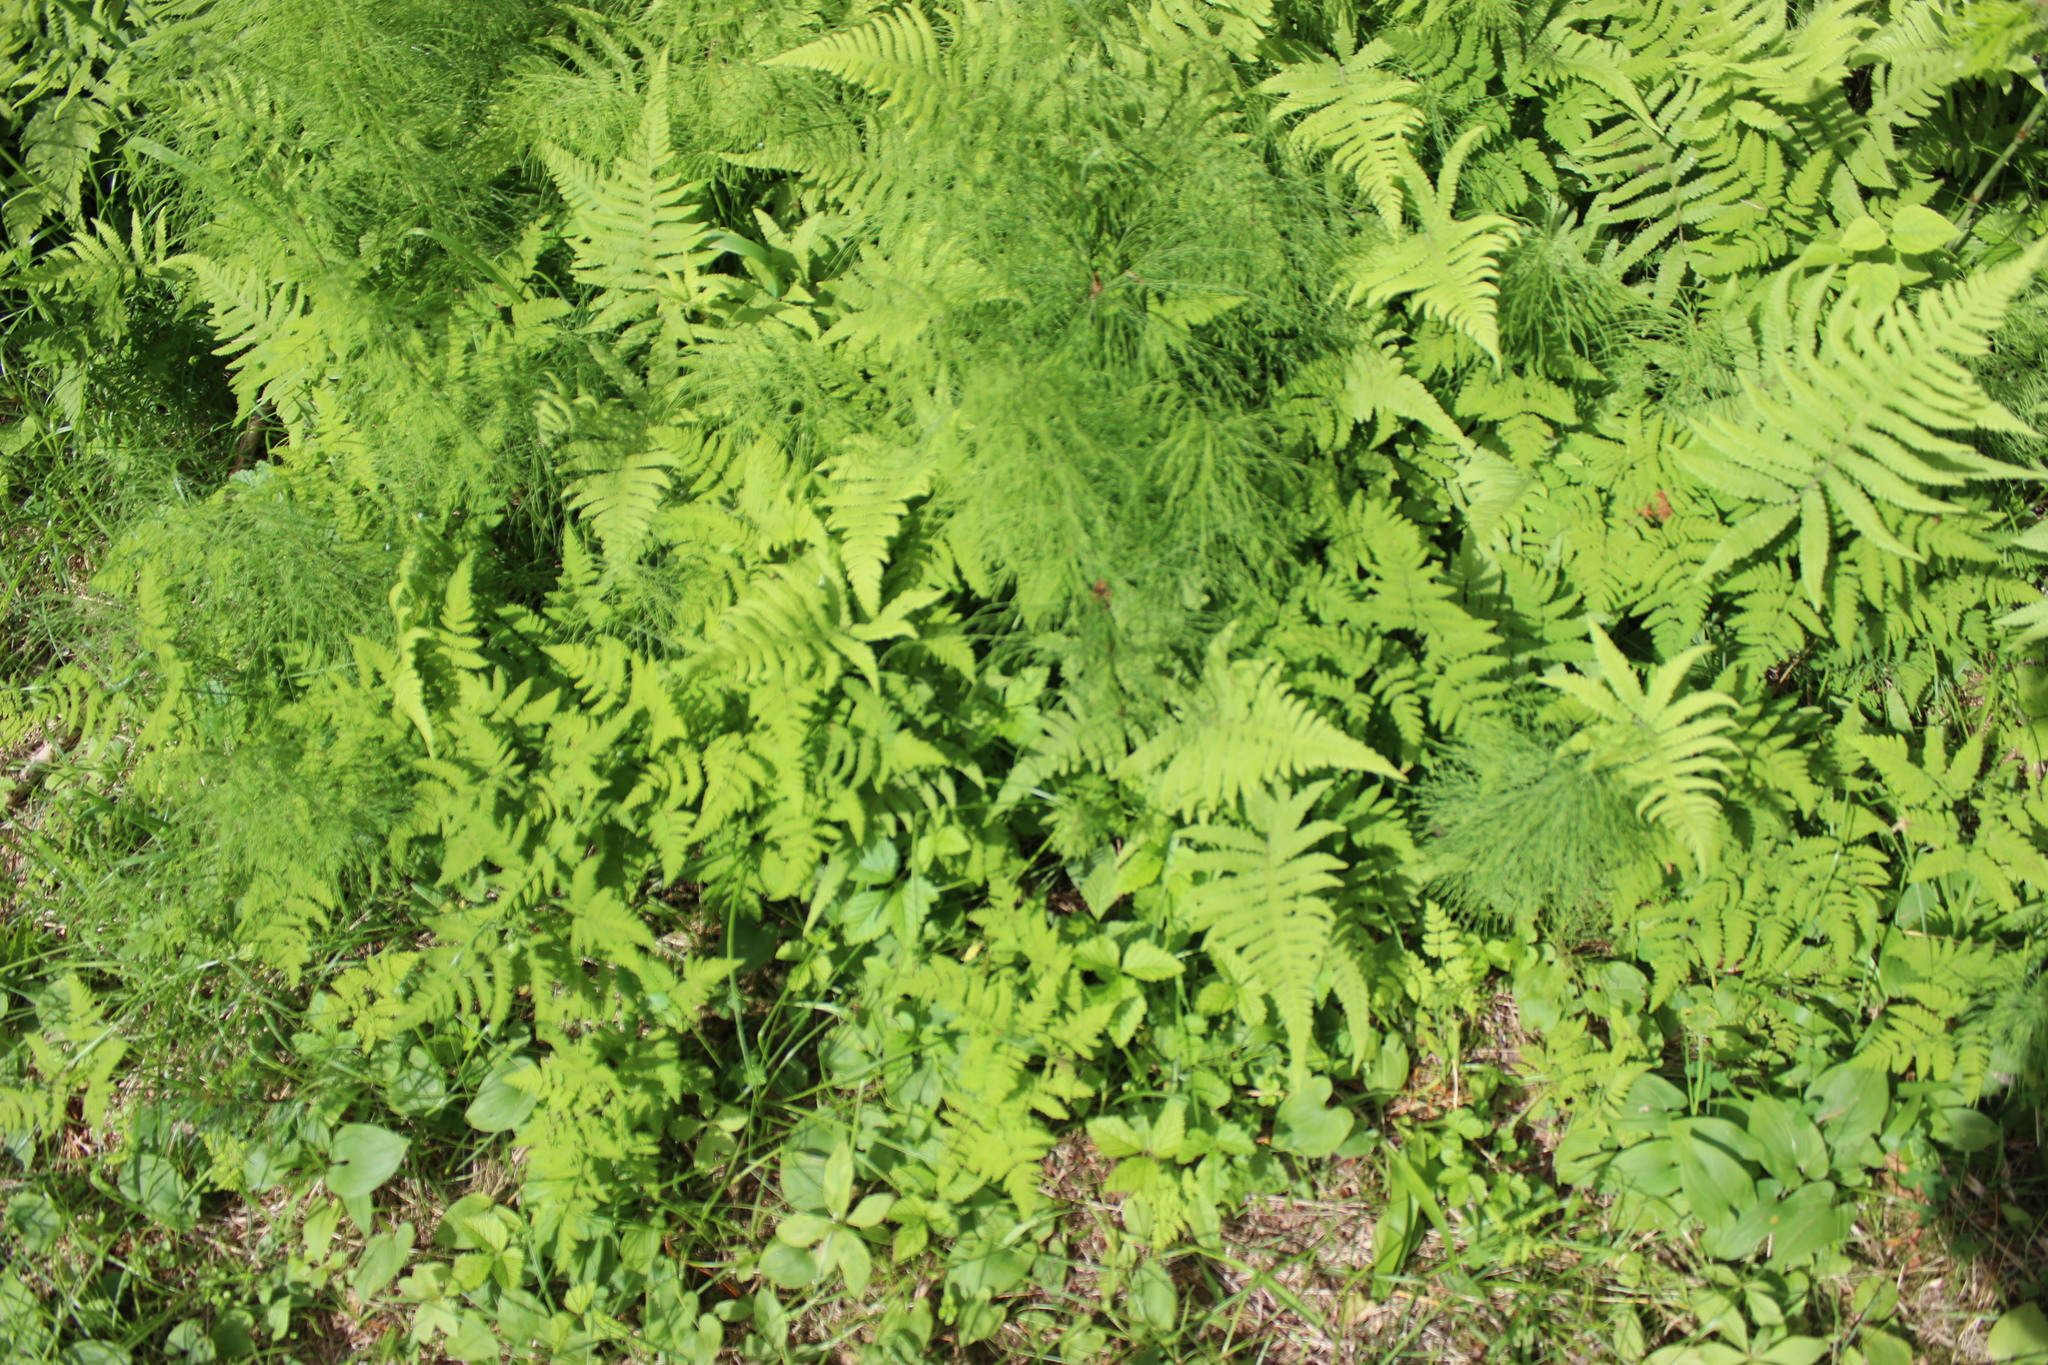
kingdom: Plantae
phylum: Tracheophyta
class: Polypodiopsida
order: Polypodiales
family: Thelypteridaceae
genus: Phegopteris
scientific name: Phegopteris connectilis
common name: Beech fern
